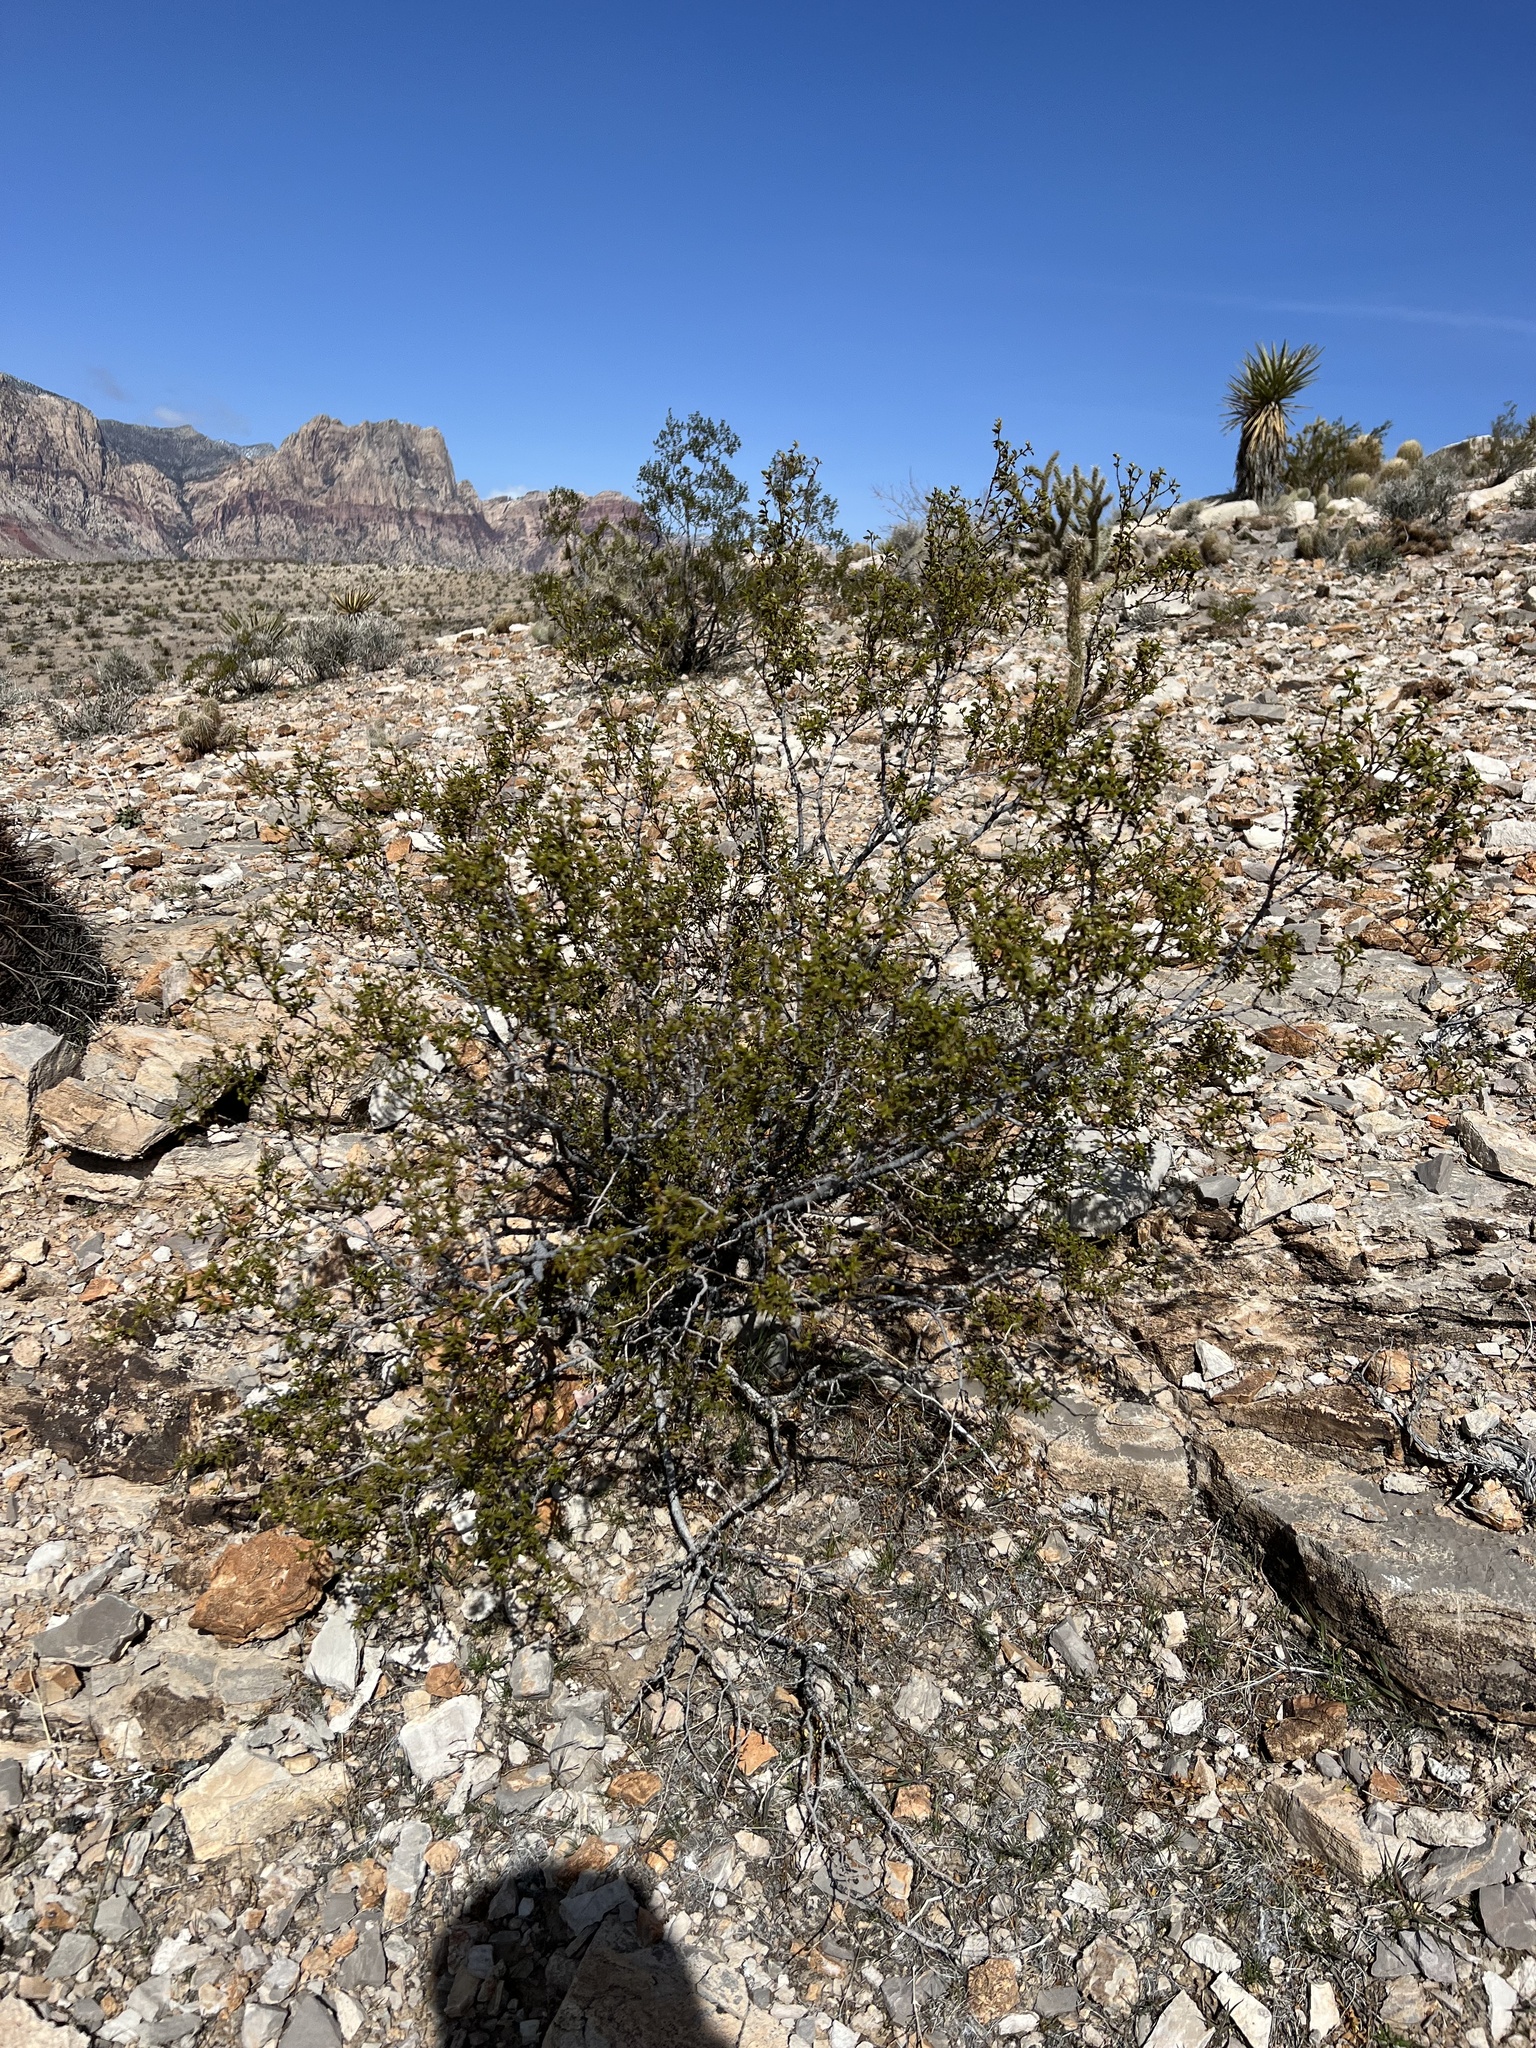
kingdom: Plantae
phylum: Tracheophyta
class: Magnoliopsida
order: Zygophyllales
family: Zygophyllaceae
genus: Larrea
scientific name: Larrea tridentata
